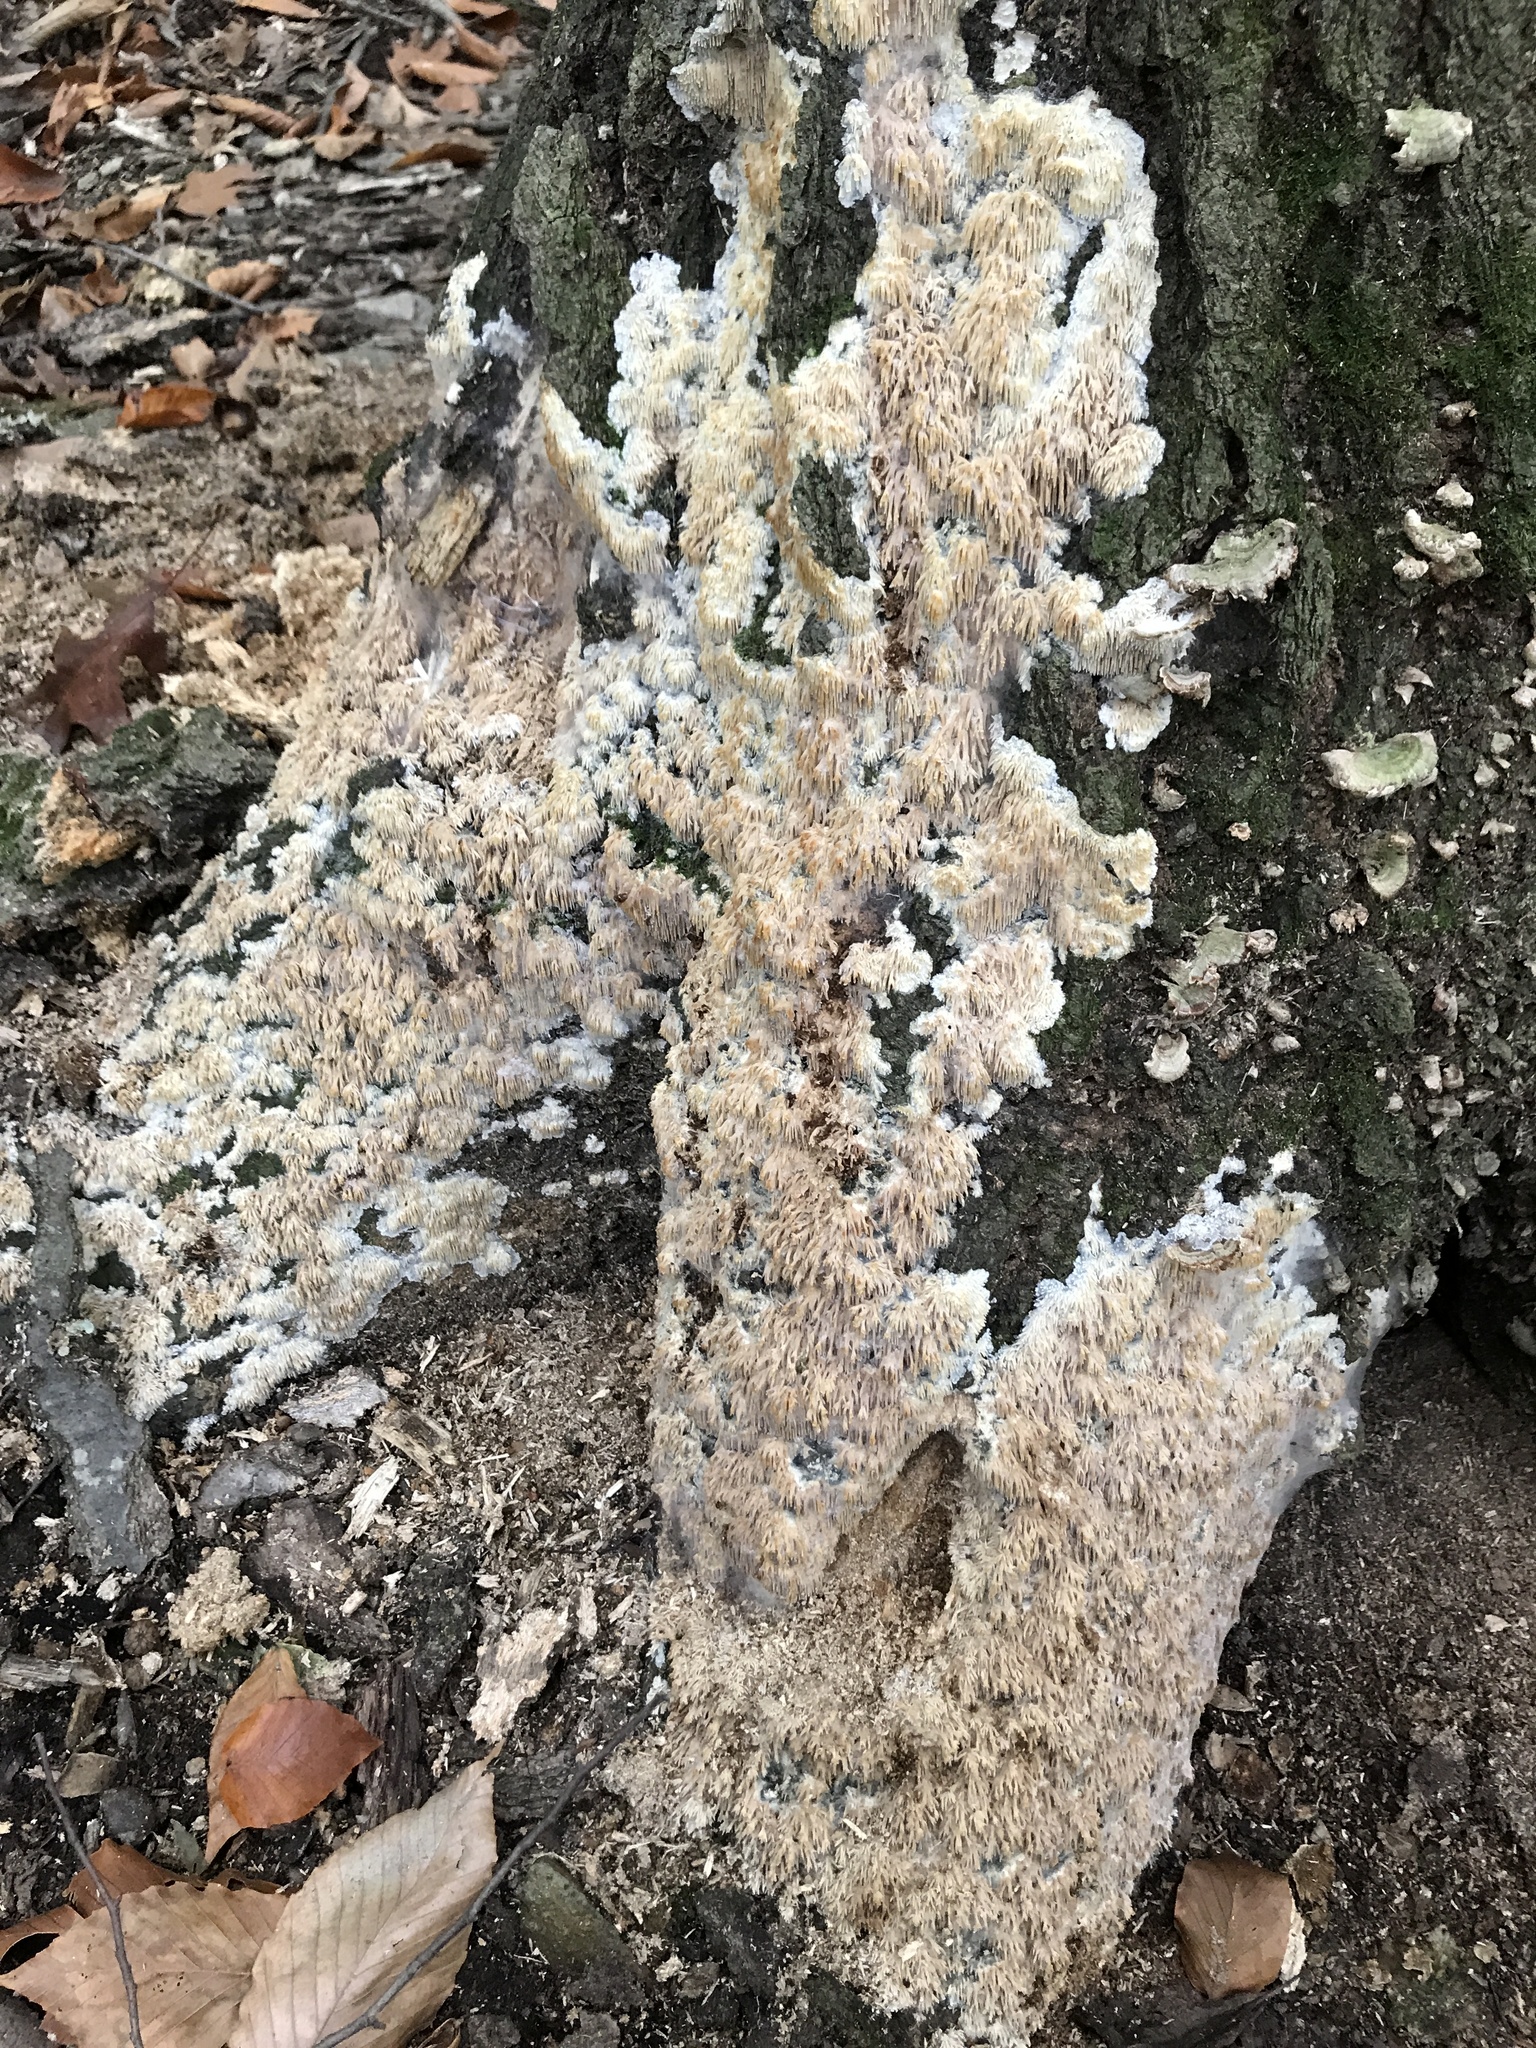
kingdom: Fungi
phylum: Basidiomycota
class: Agaricomycetes
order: Agaricales
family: Radulomycetaceae
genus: Radulomyces
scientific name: Radulomyces copelandii
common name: Asian beauty
